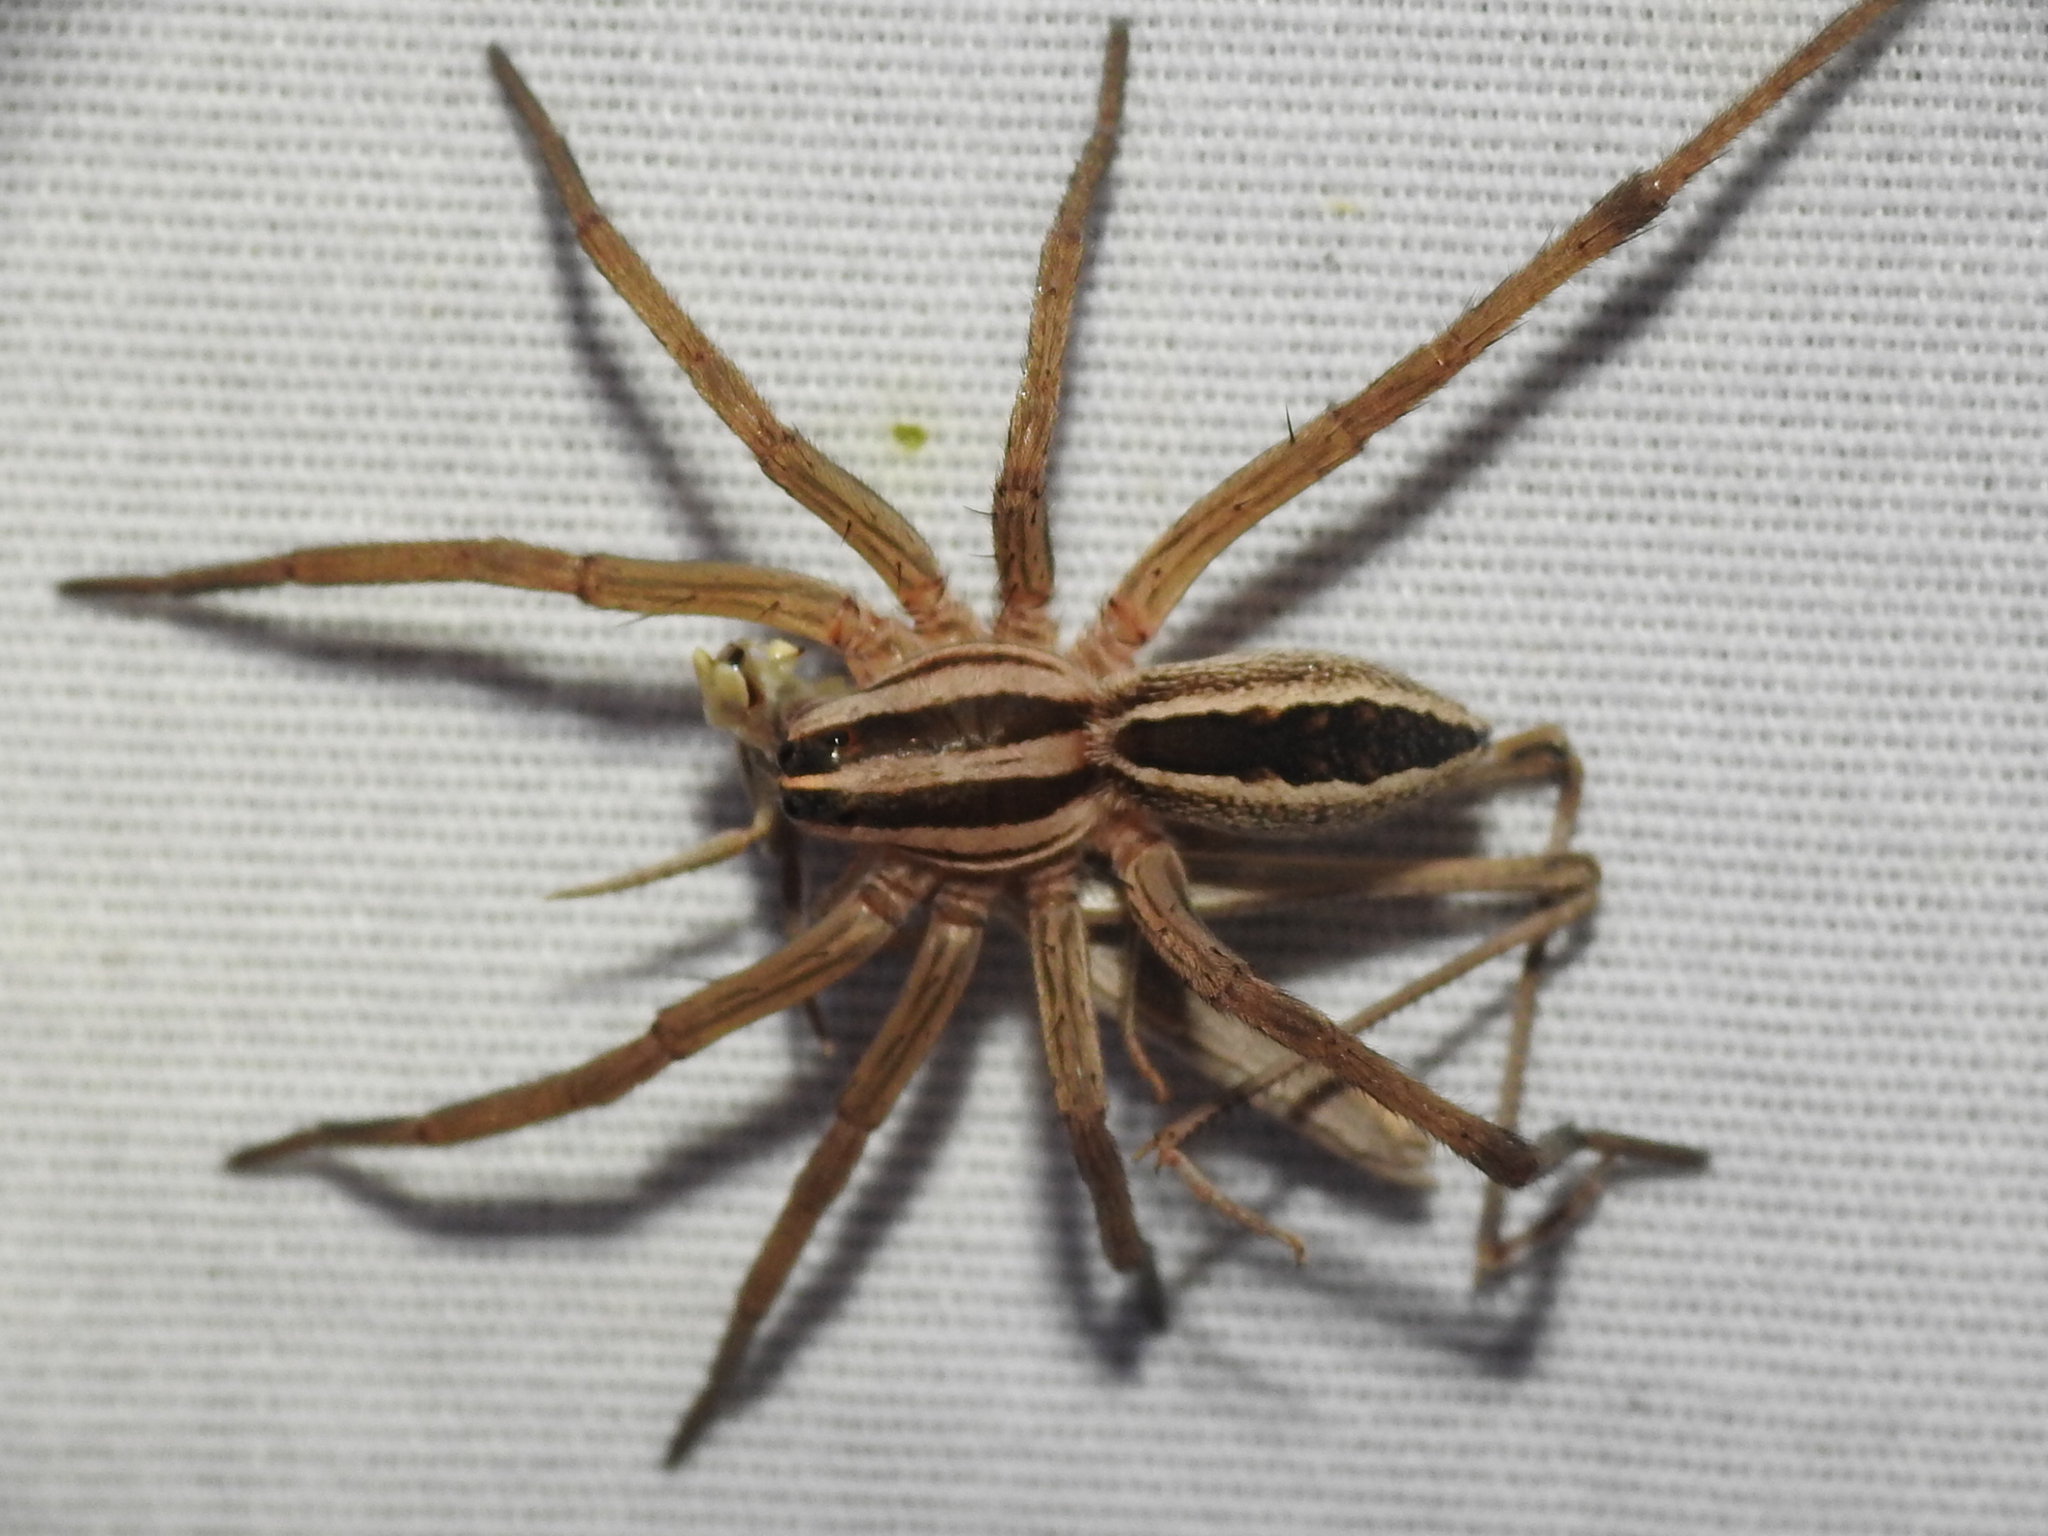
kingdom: Animalia
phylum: Arthropoda
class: Arachnida
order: Araneae
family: Lycosidae
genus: Rabidosa
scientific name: Rabidosa rabida
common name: Rabid wolf spider
